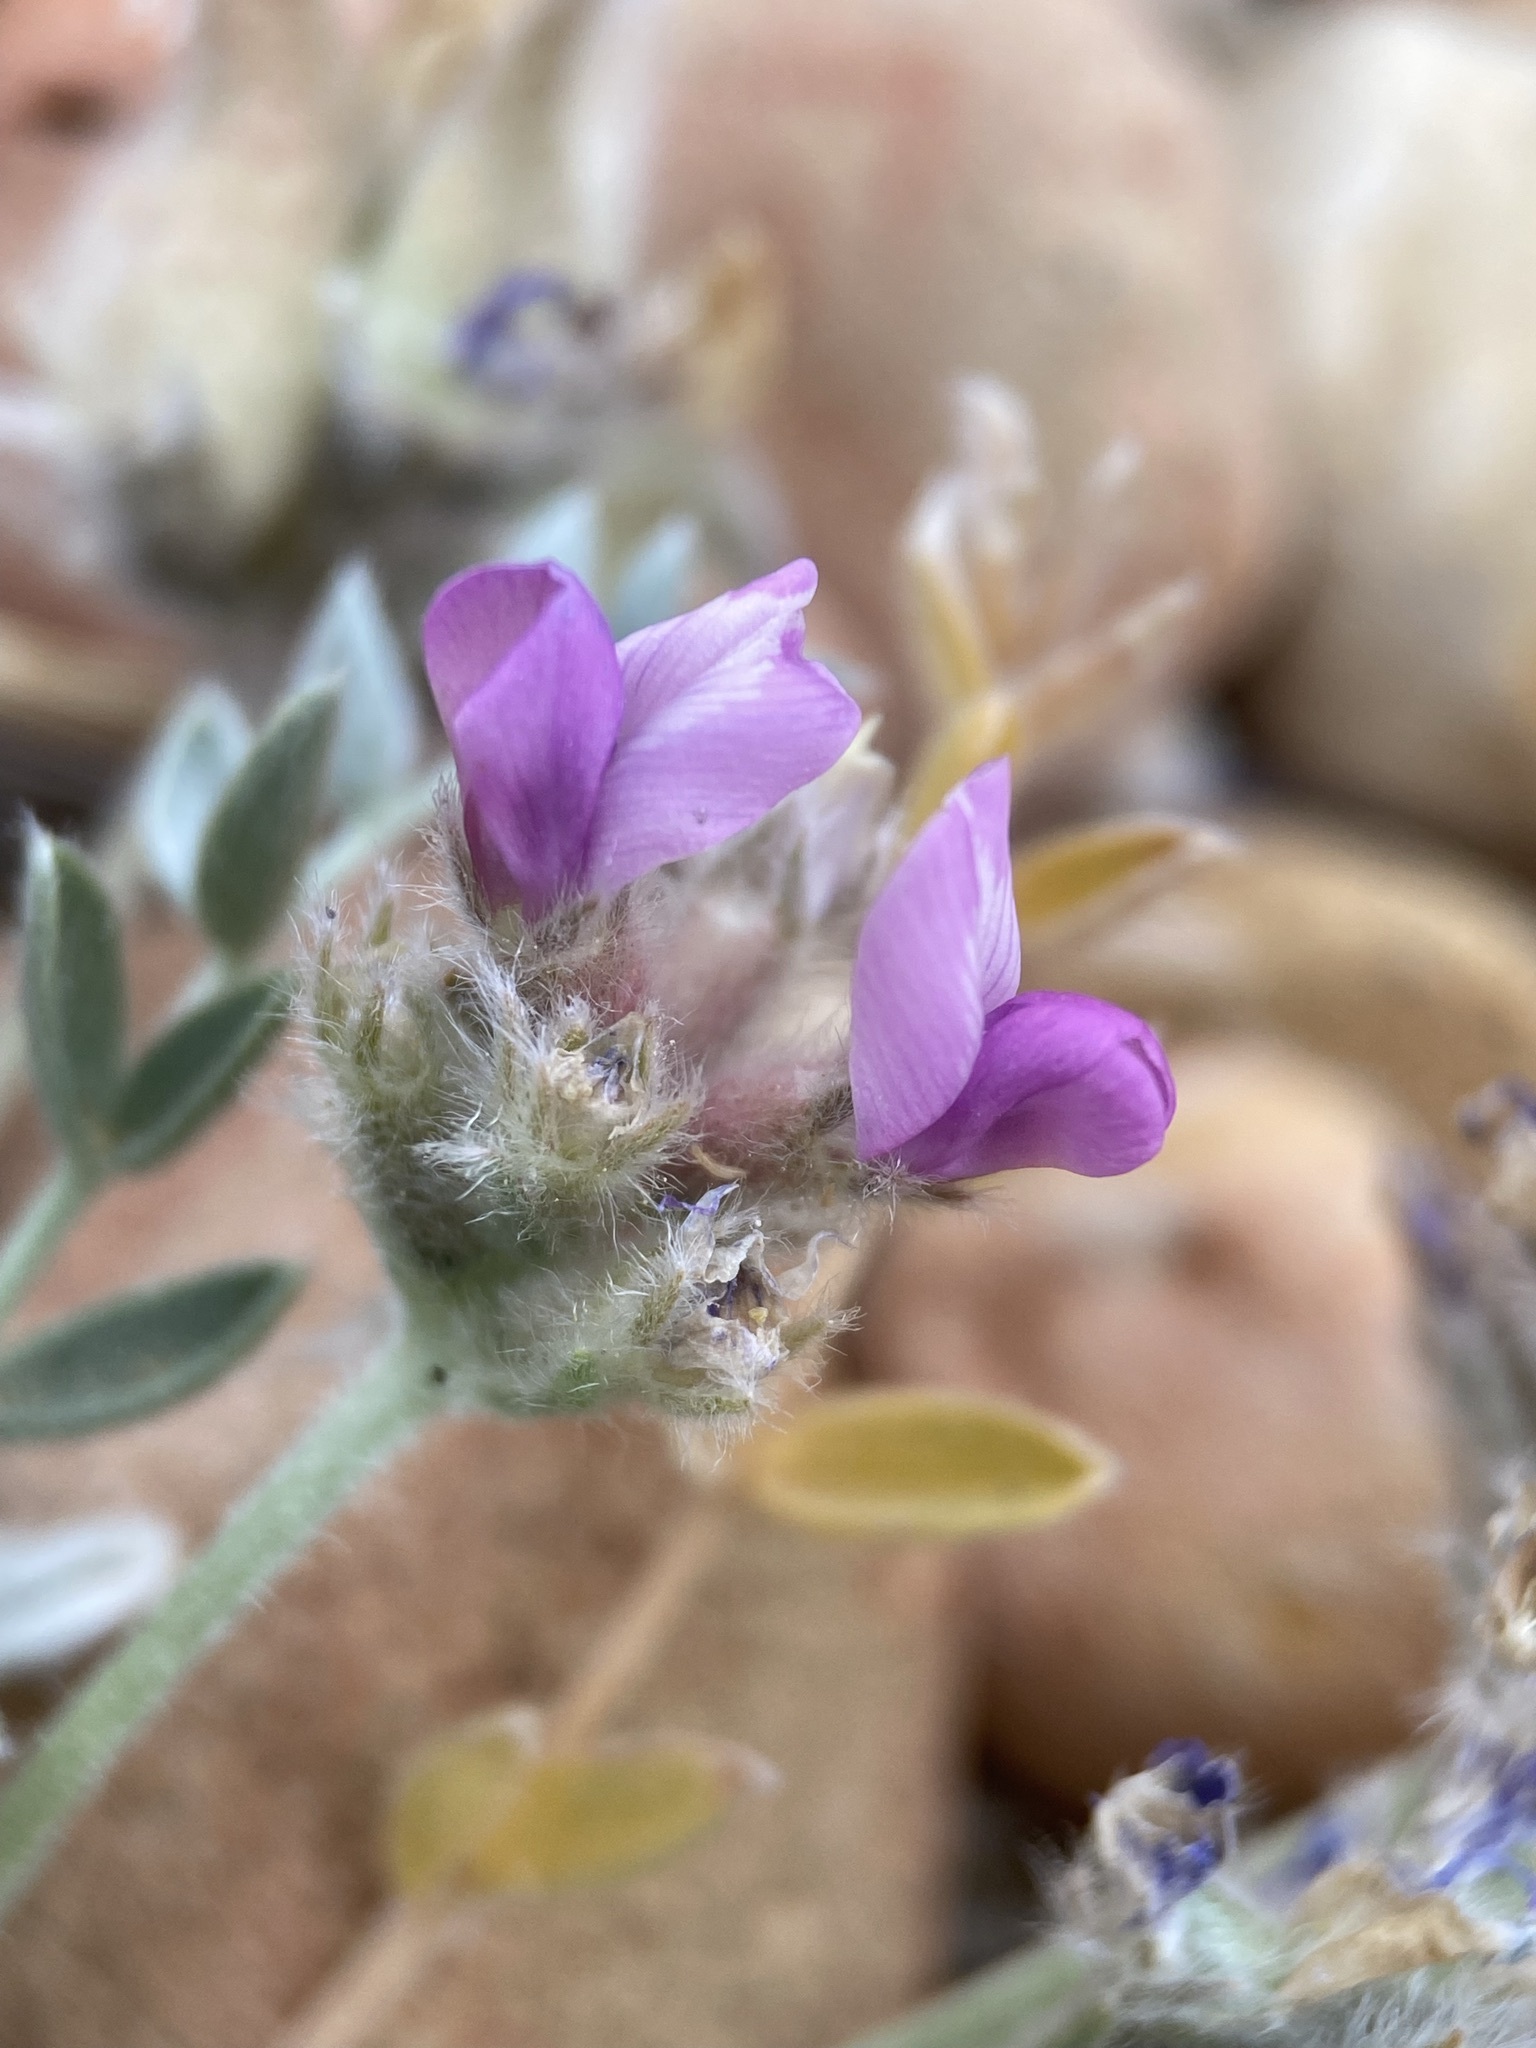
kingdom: Plantae
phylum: Tracheophyta
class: Magnoliopsida
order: Fabales
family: Fabaceae
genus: Oxytropis
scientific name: Oxytropis oreophila
